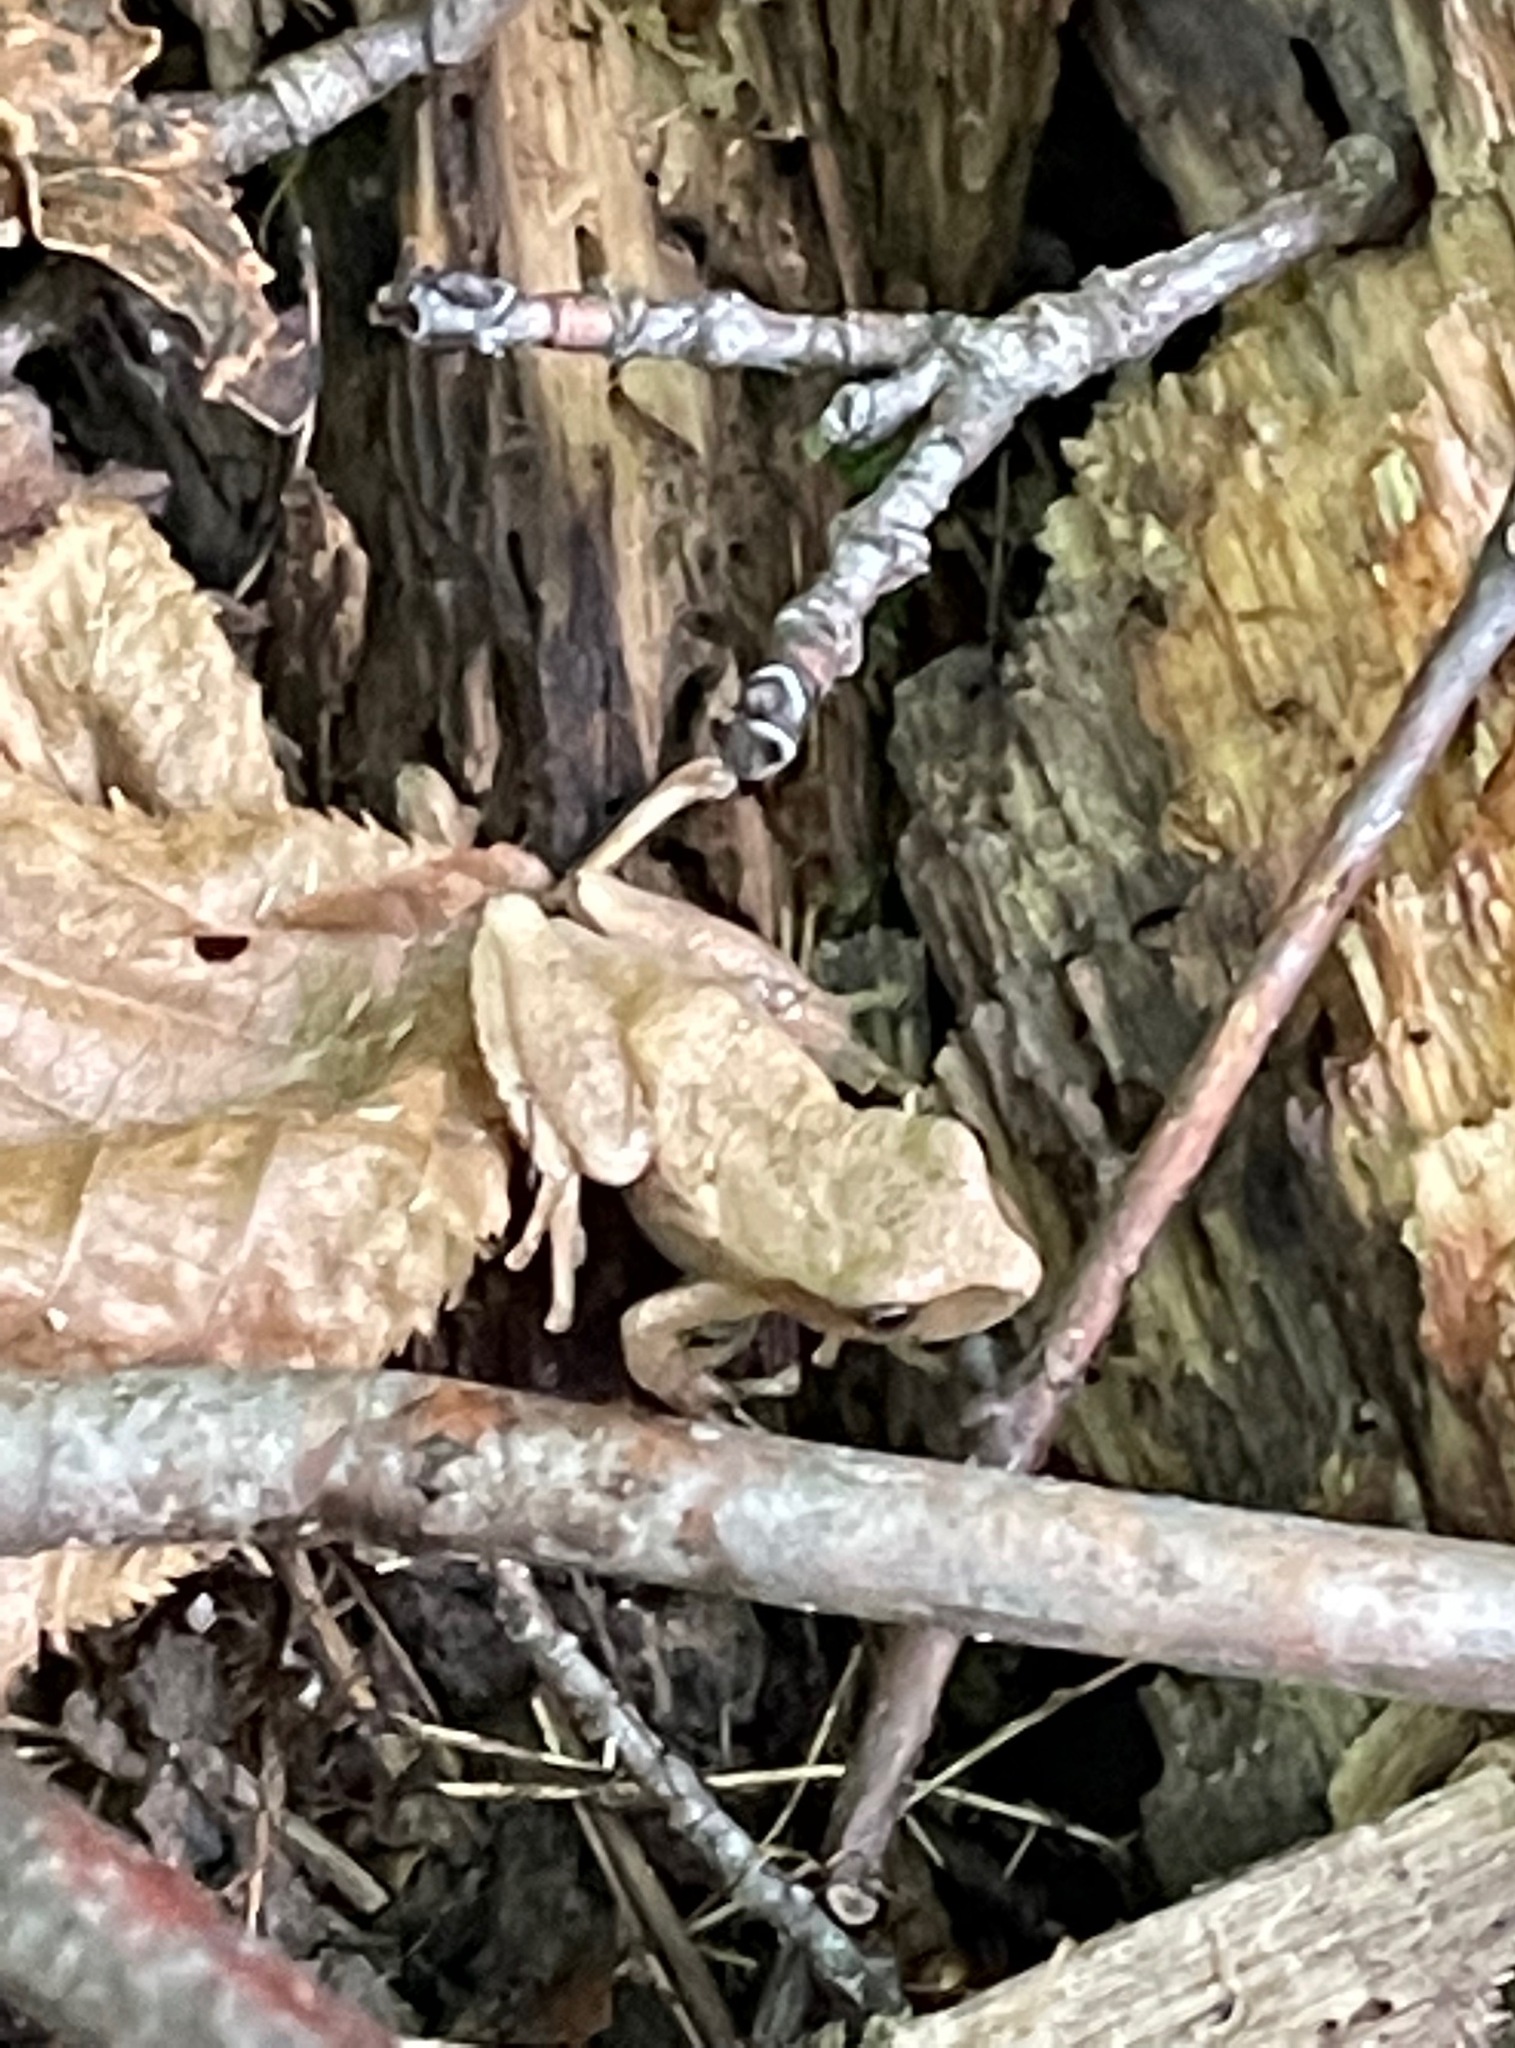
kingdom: Animalia
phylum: Chordata
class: Amphibia
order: Anura
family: Hylidae
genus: Pseudacris
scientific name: Pseudacris crucifer
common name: Spring peeper
